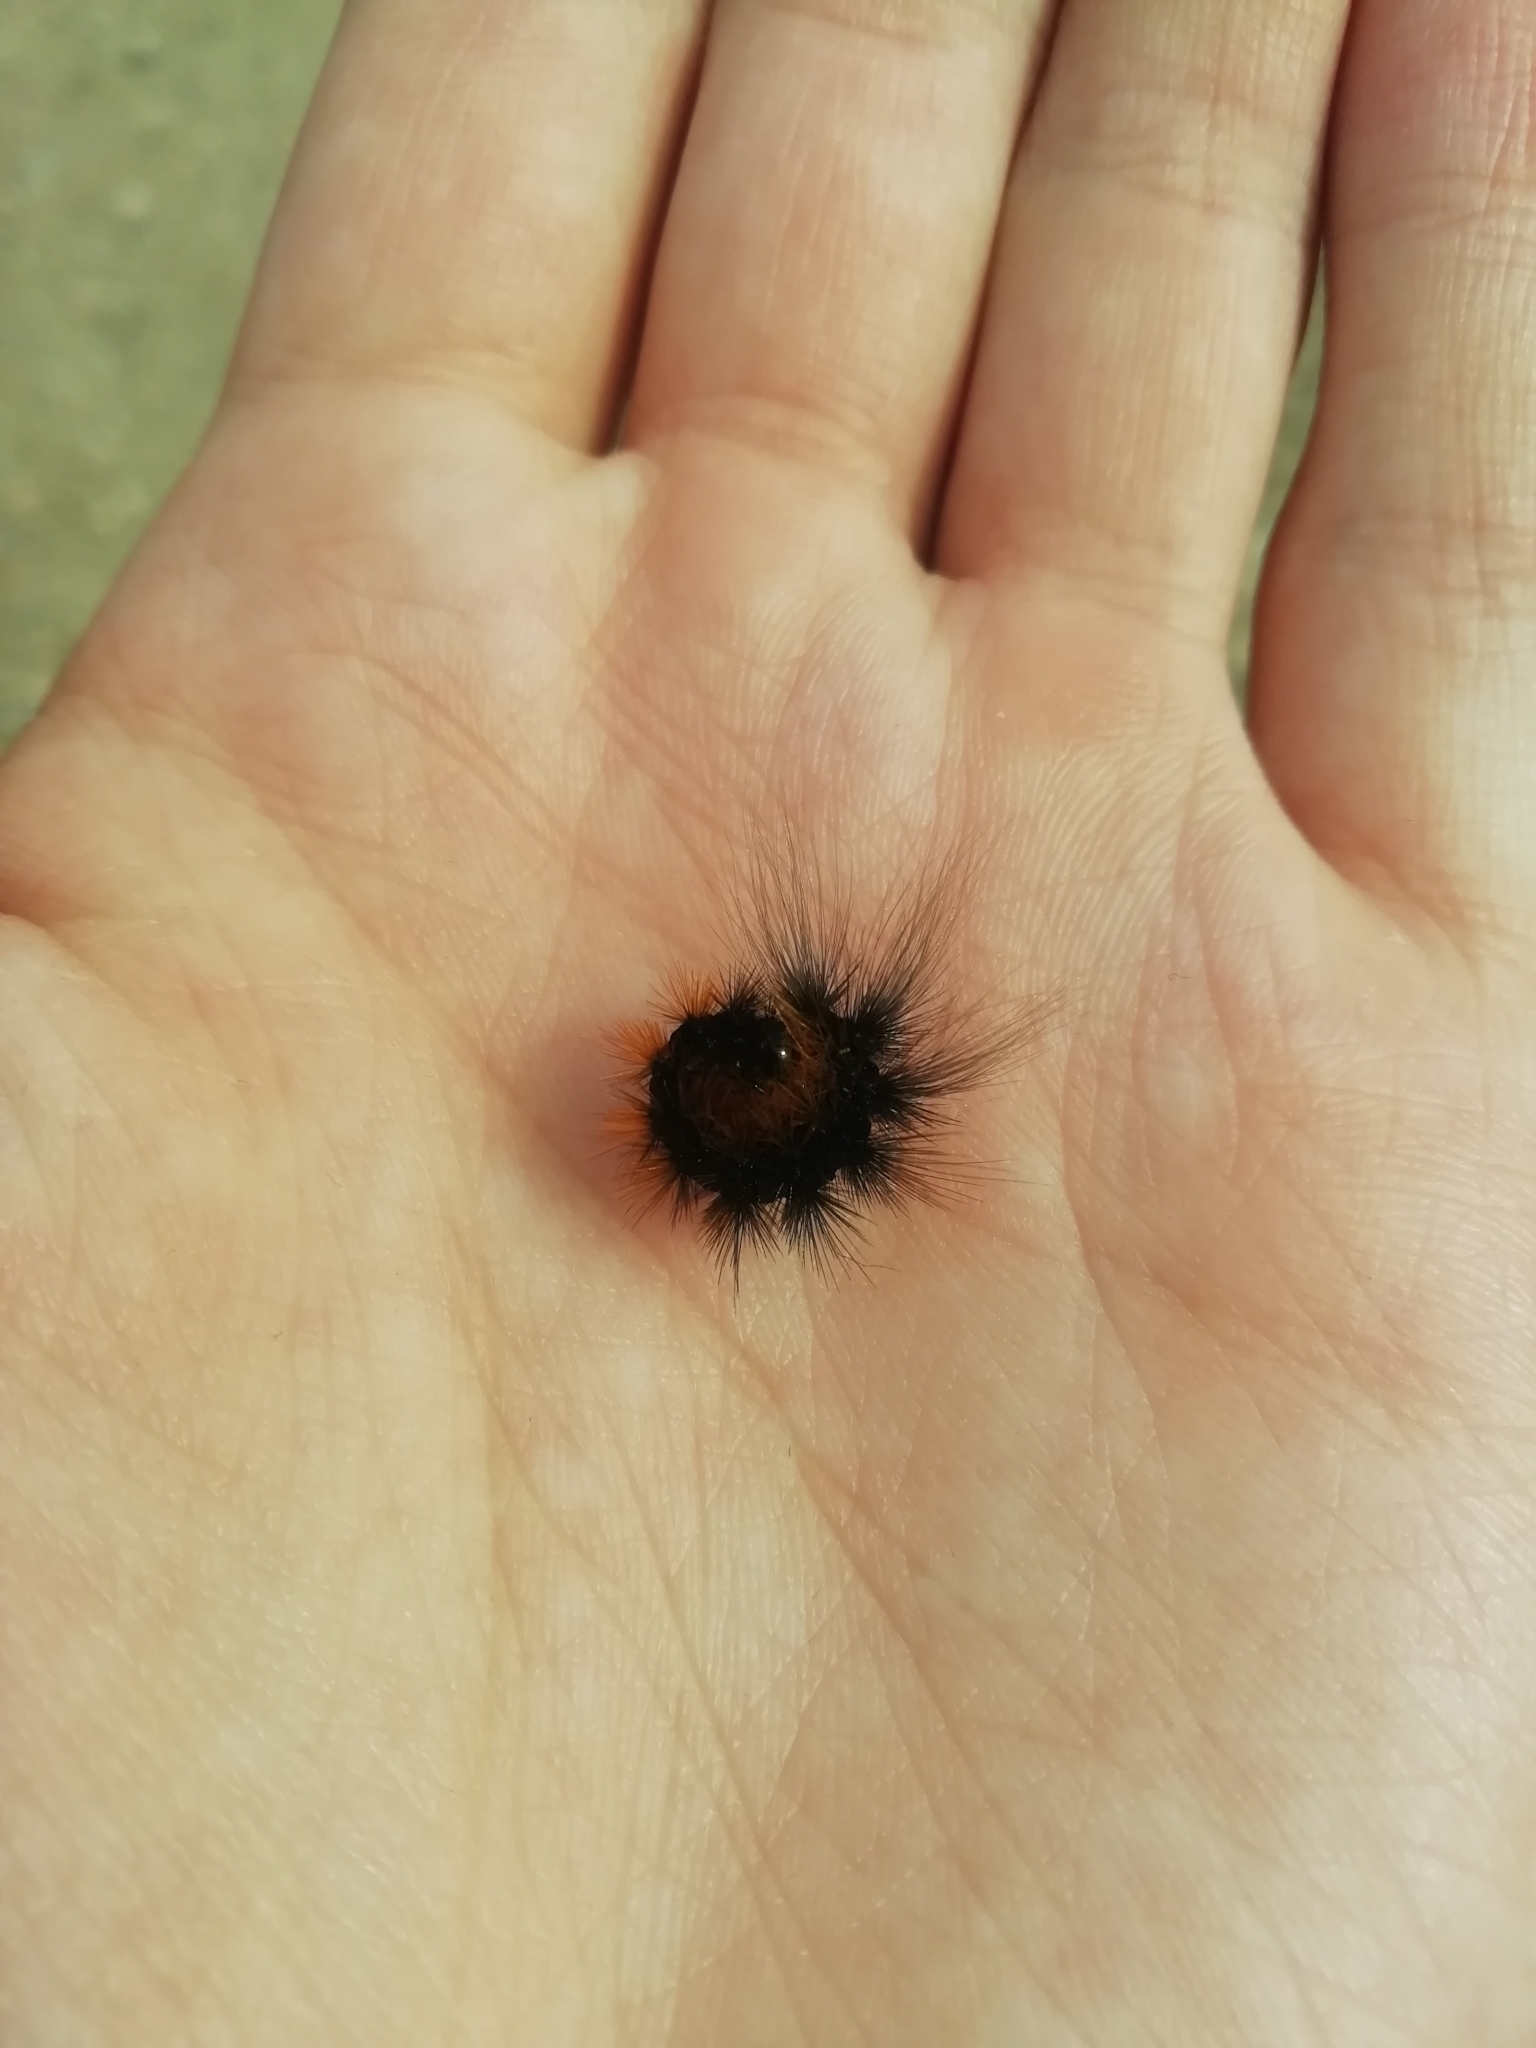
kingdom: Animalia
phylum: Arthropoda
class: Insecta
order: Lepidoptera
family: Erebidae
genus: Hyphoraia
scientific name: Hyphoraia aulica
